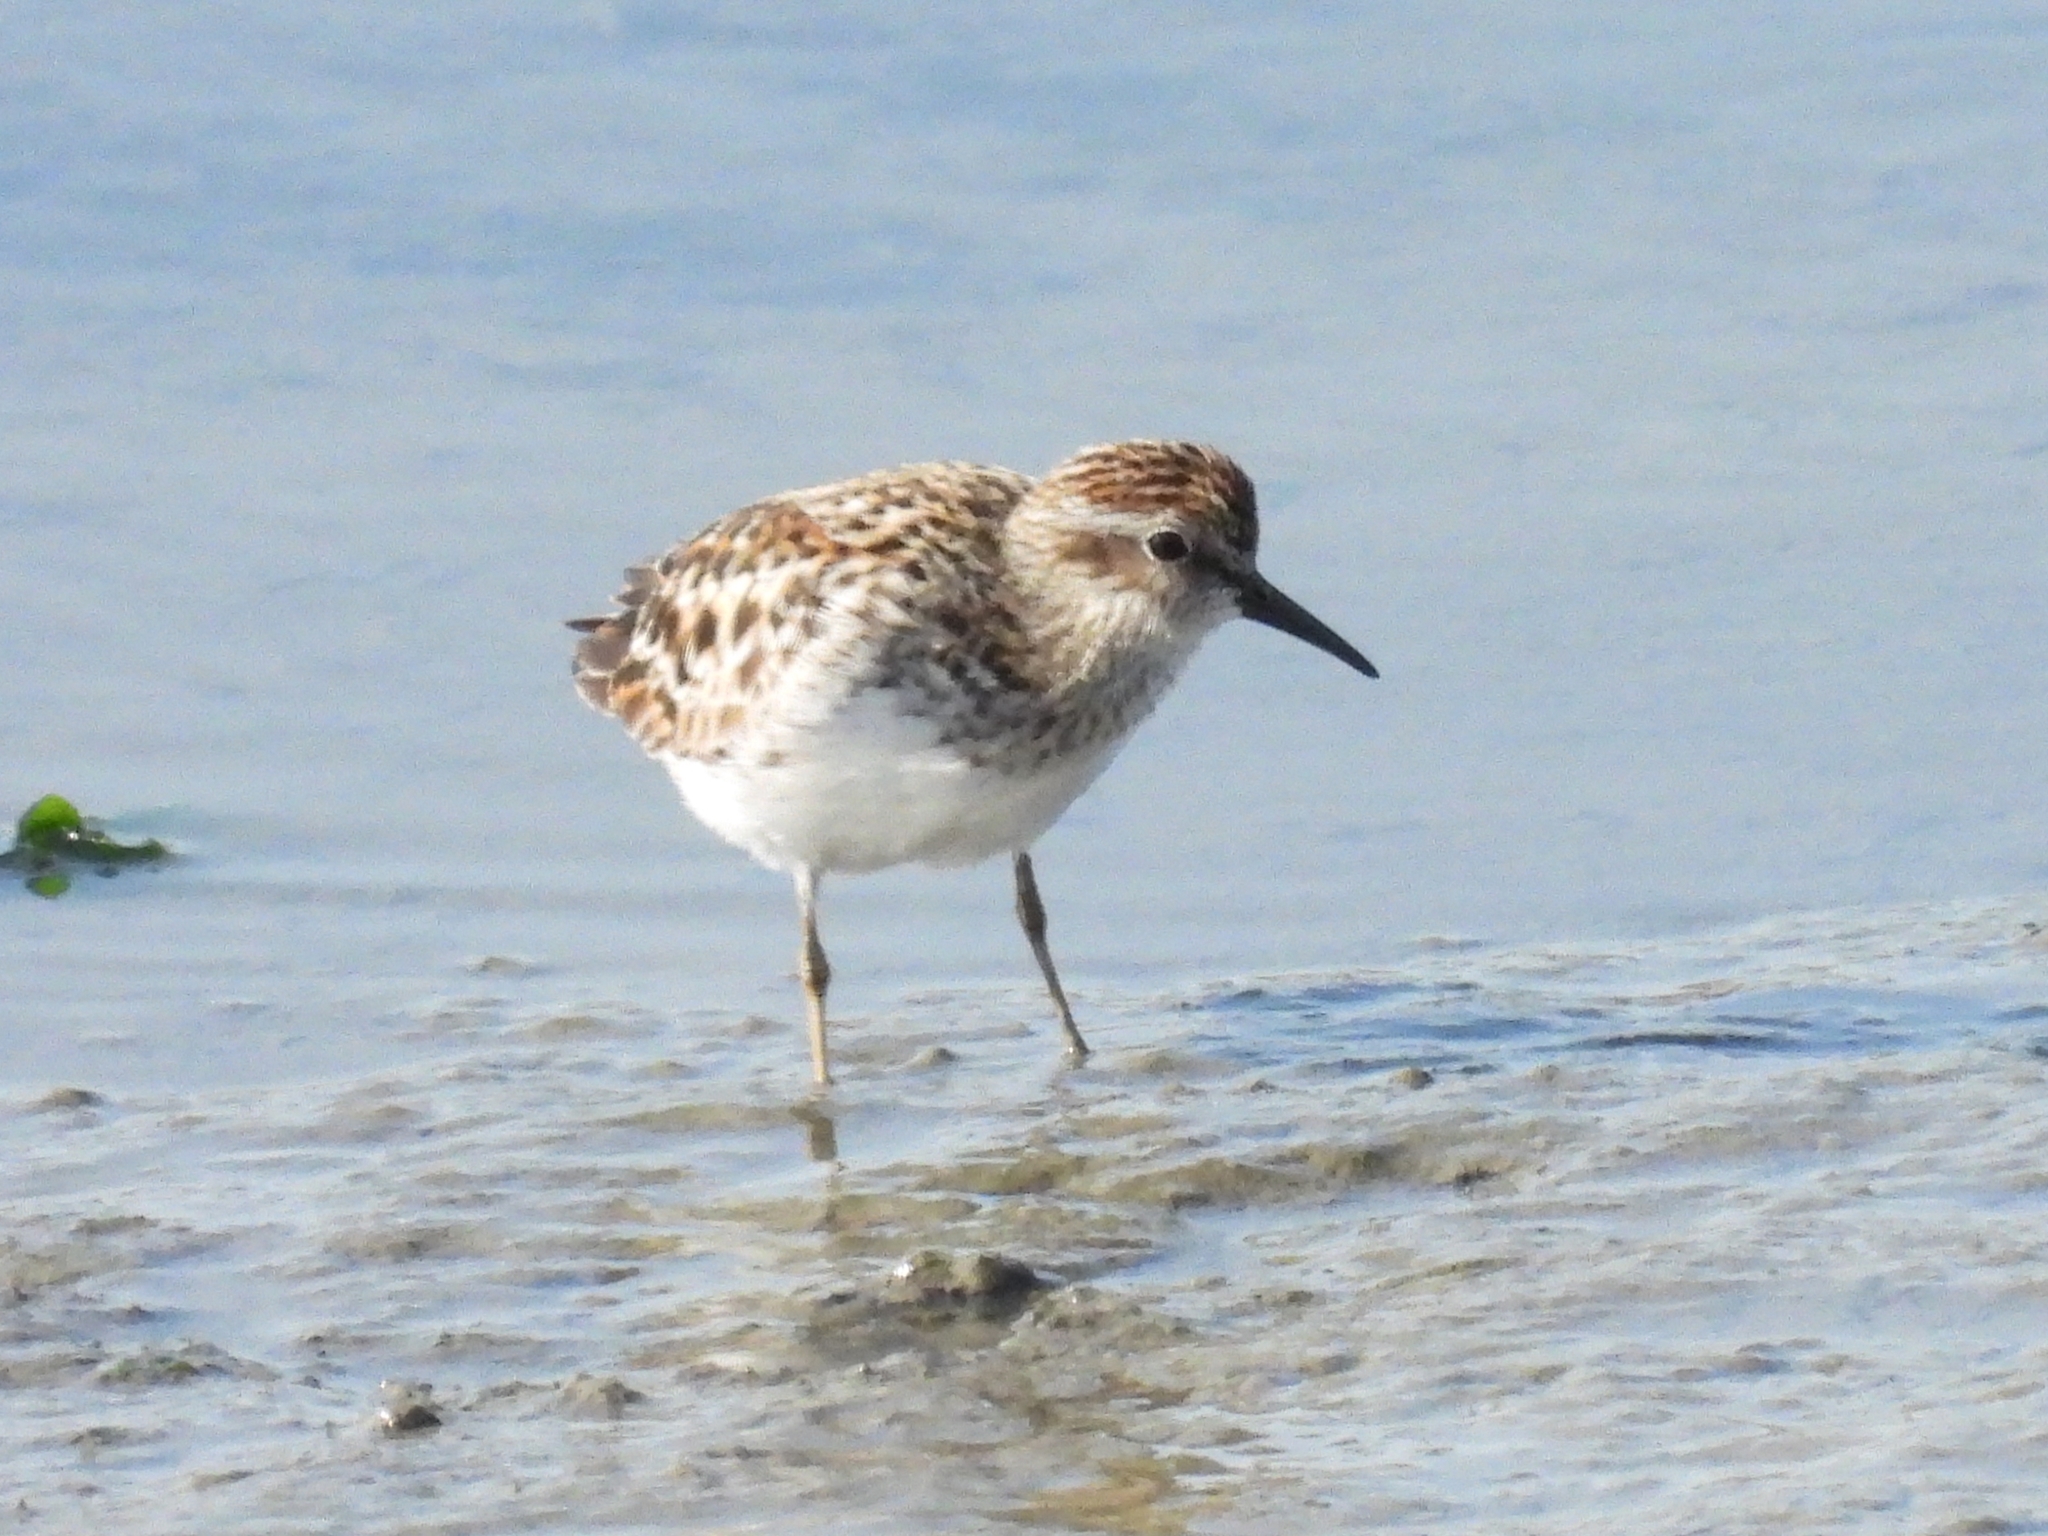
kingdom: Animalia
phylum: Chordata
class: Aves
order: Charadriiformes
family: Scolopacidae
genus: Calidris
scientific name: Calidris minutilla
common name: Least sandpiper
